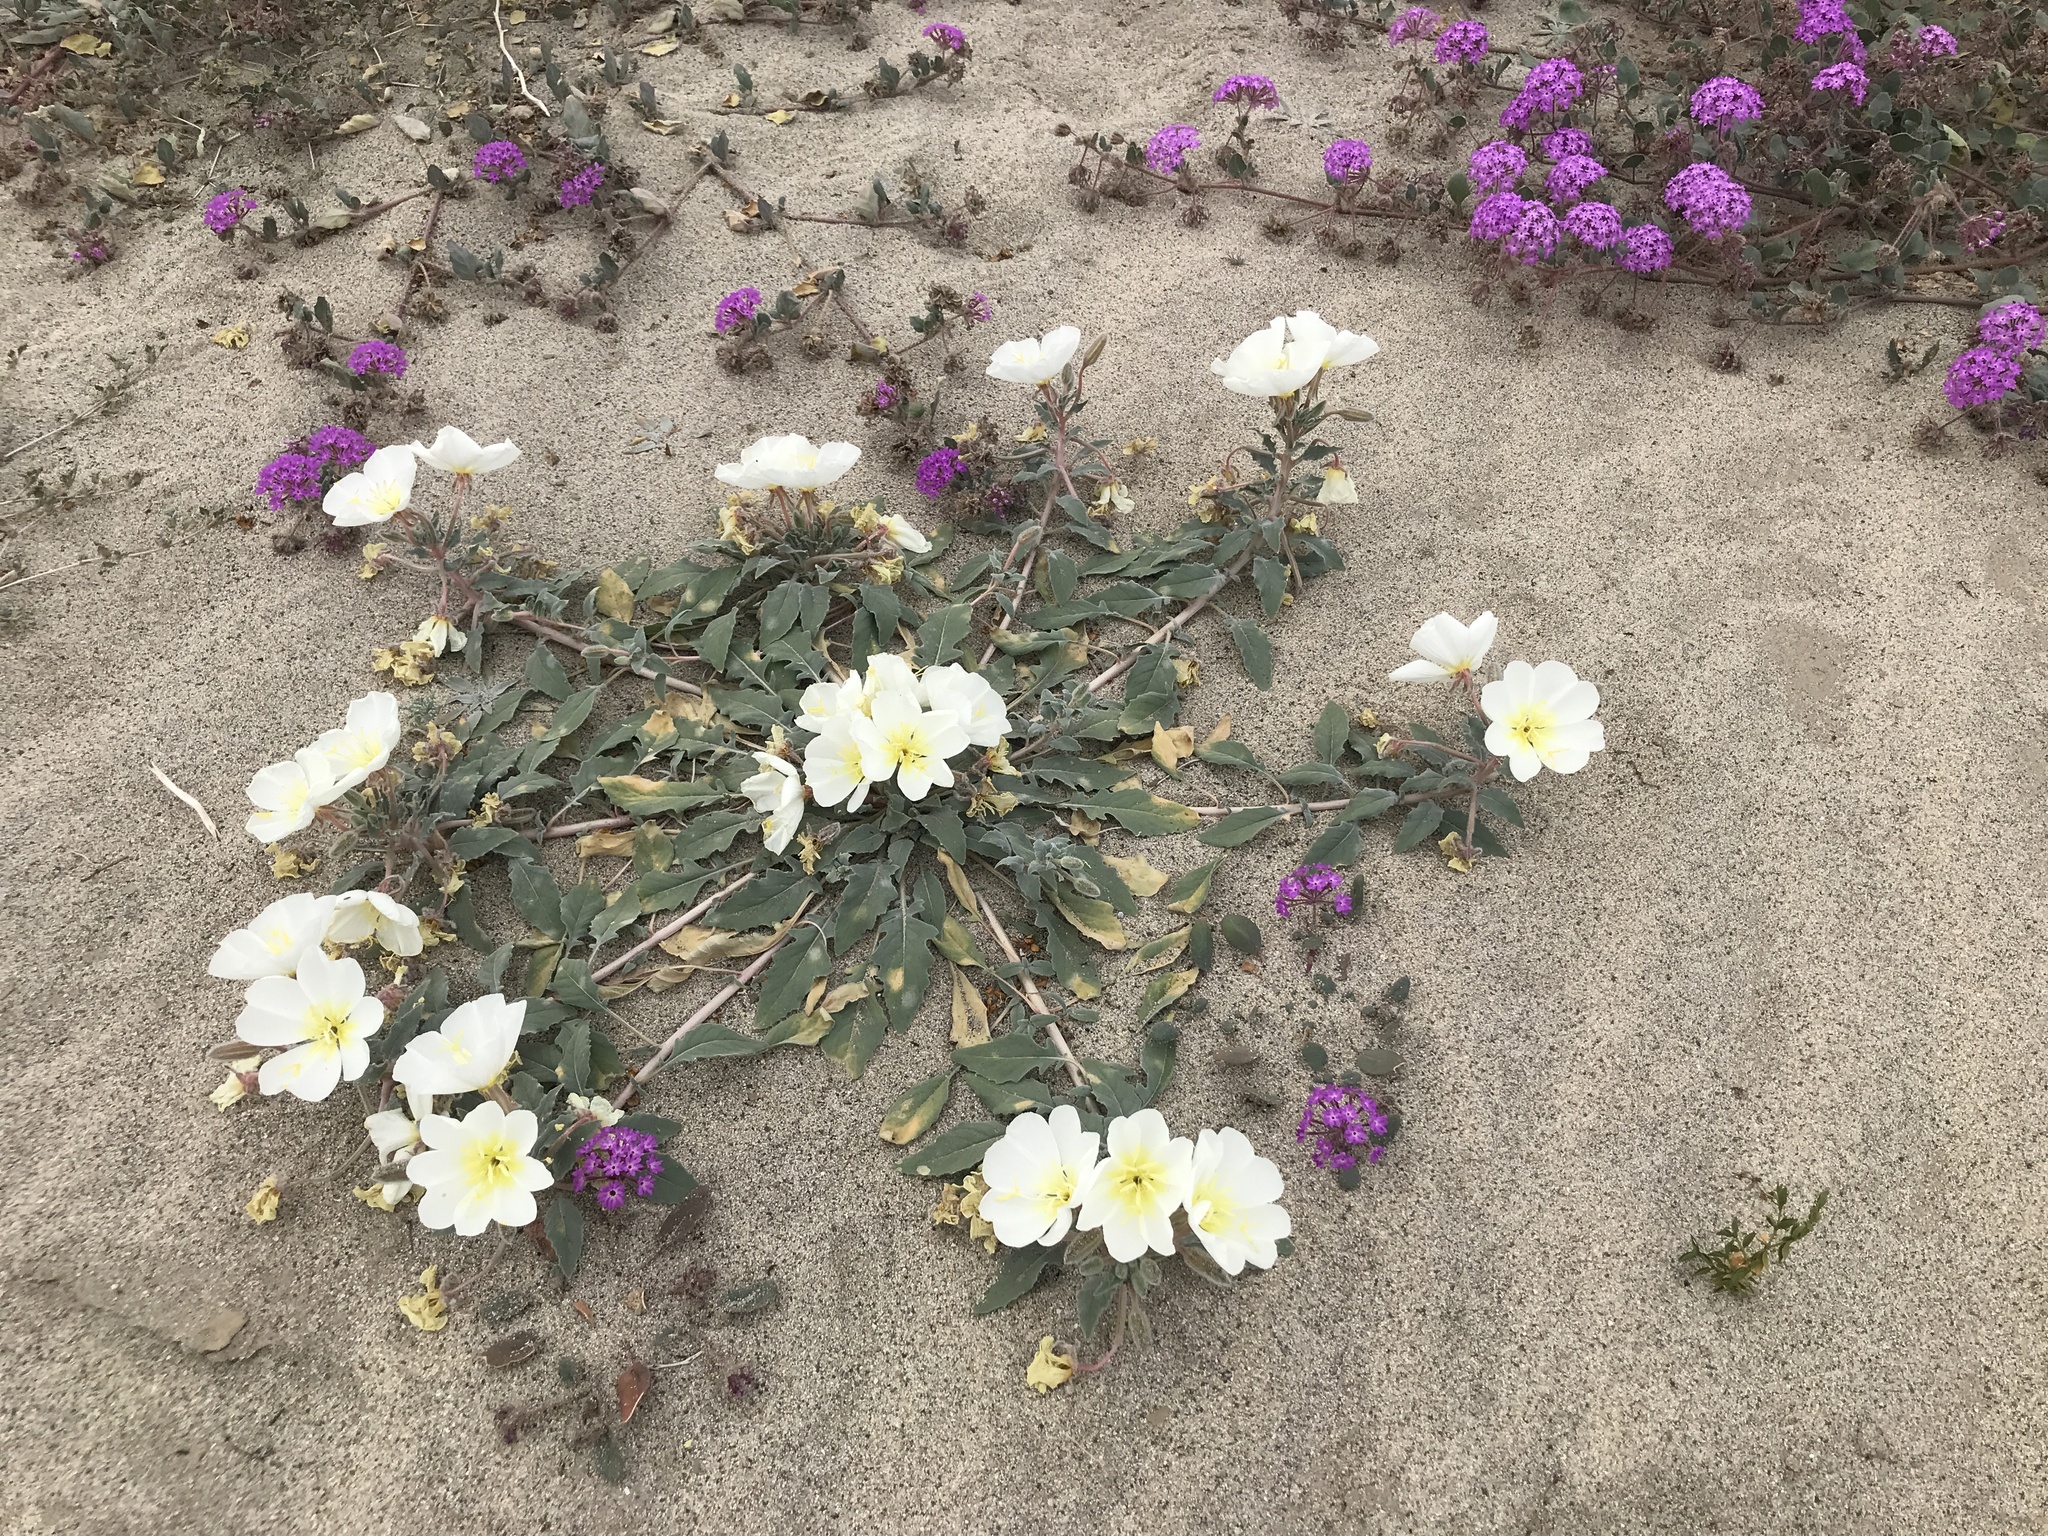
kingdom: Plantae
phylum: Tracheophyta
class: Magnoliopsida
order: Myrtales
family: Onagraceae
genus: Oenothera
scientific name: Oenothera deltoides
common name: Basket evening-primrose
